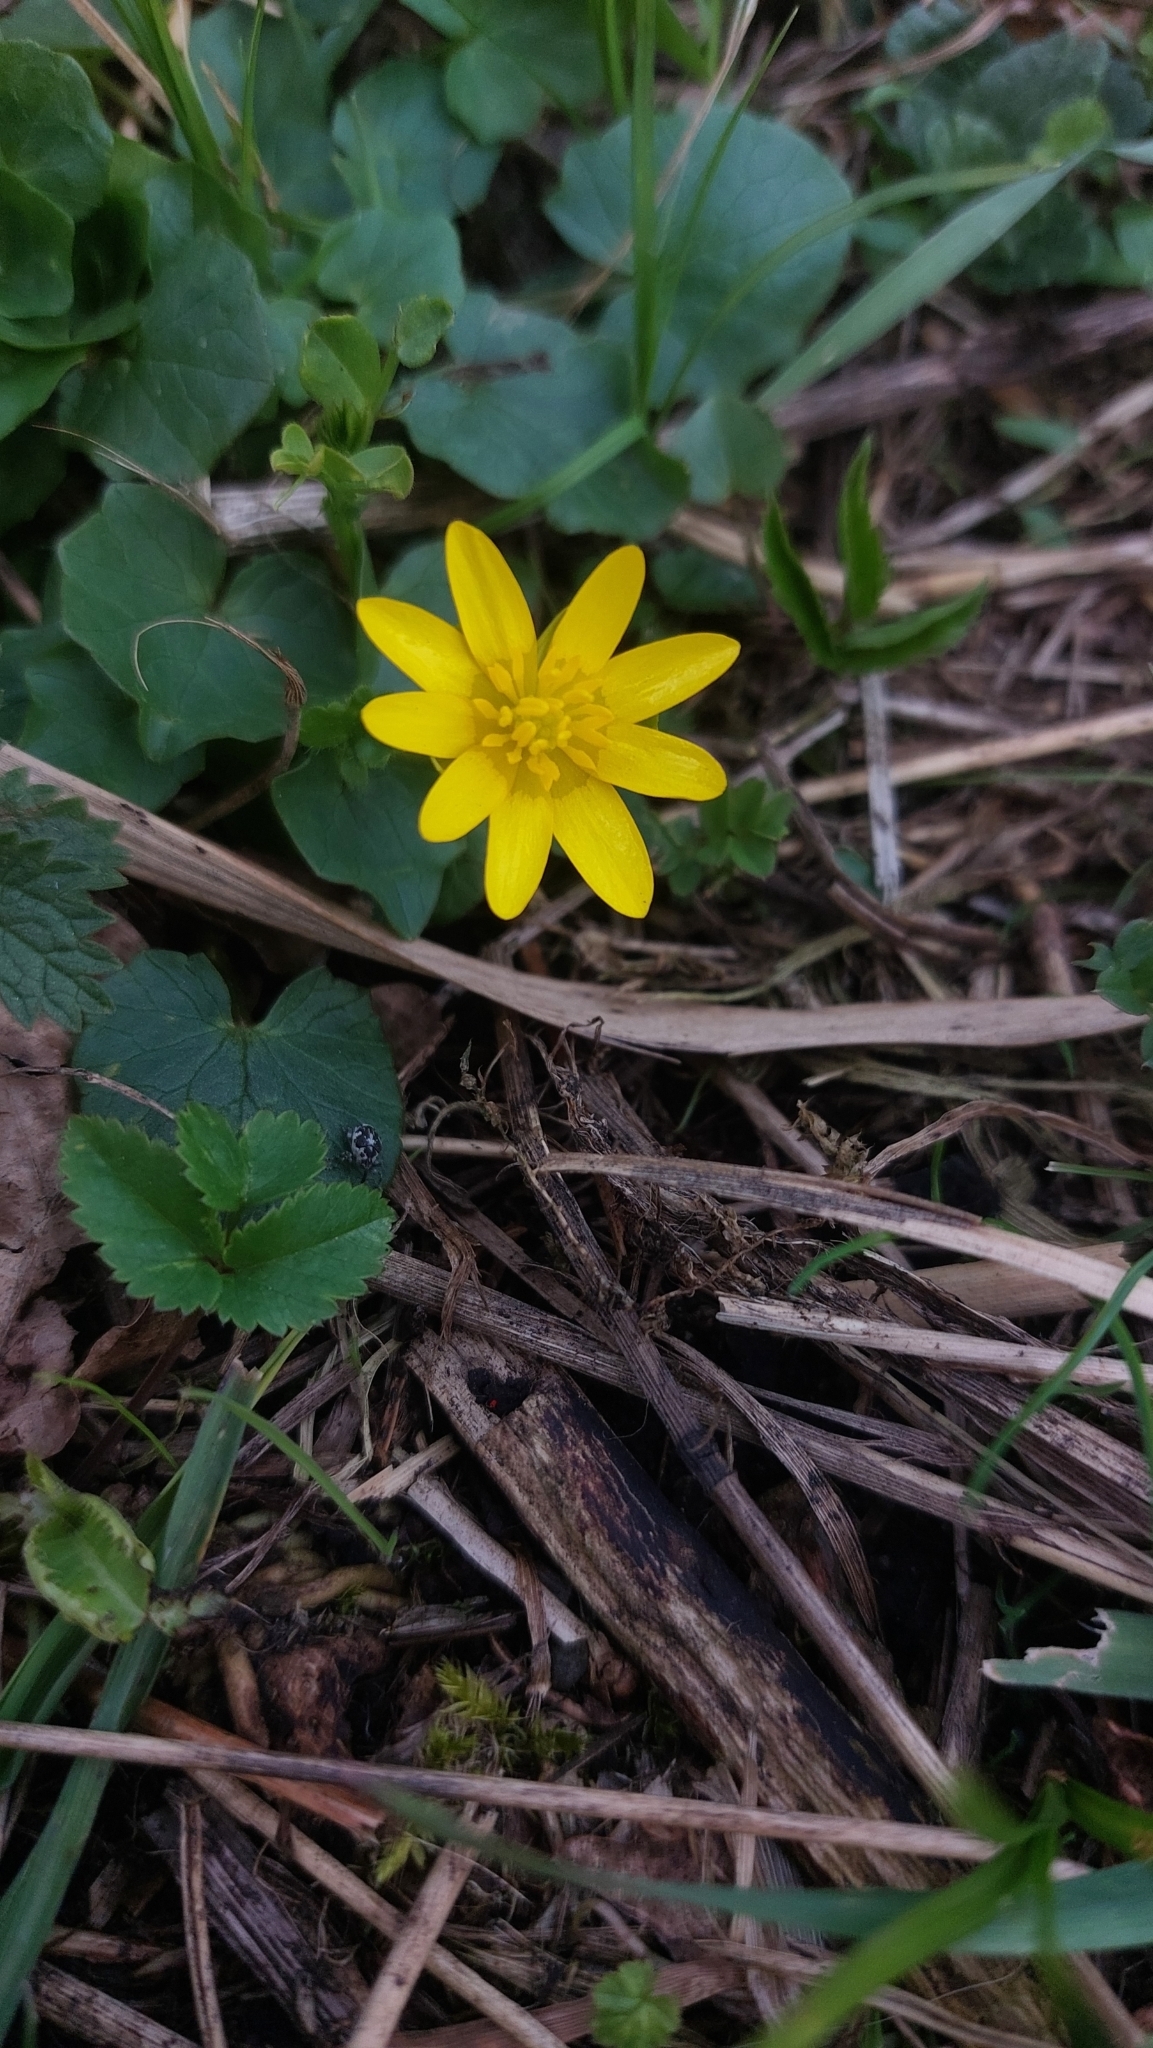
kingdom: Plantae
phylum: Tracheophyta
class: Magnoliopsida
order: Ranunculales
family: Ranunculaceae
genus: Ficaria
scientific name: Ficaria verna
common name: Lesser celandine
